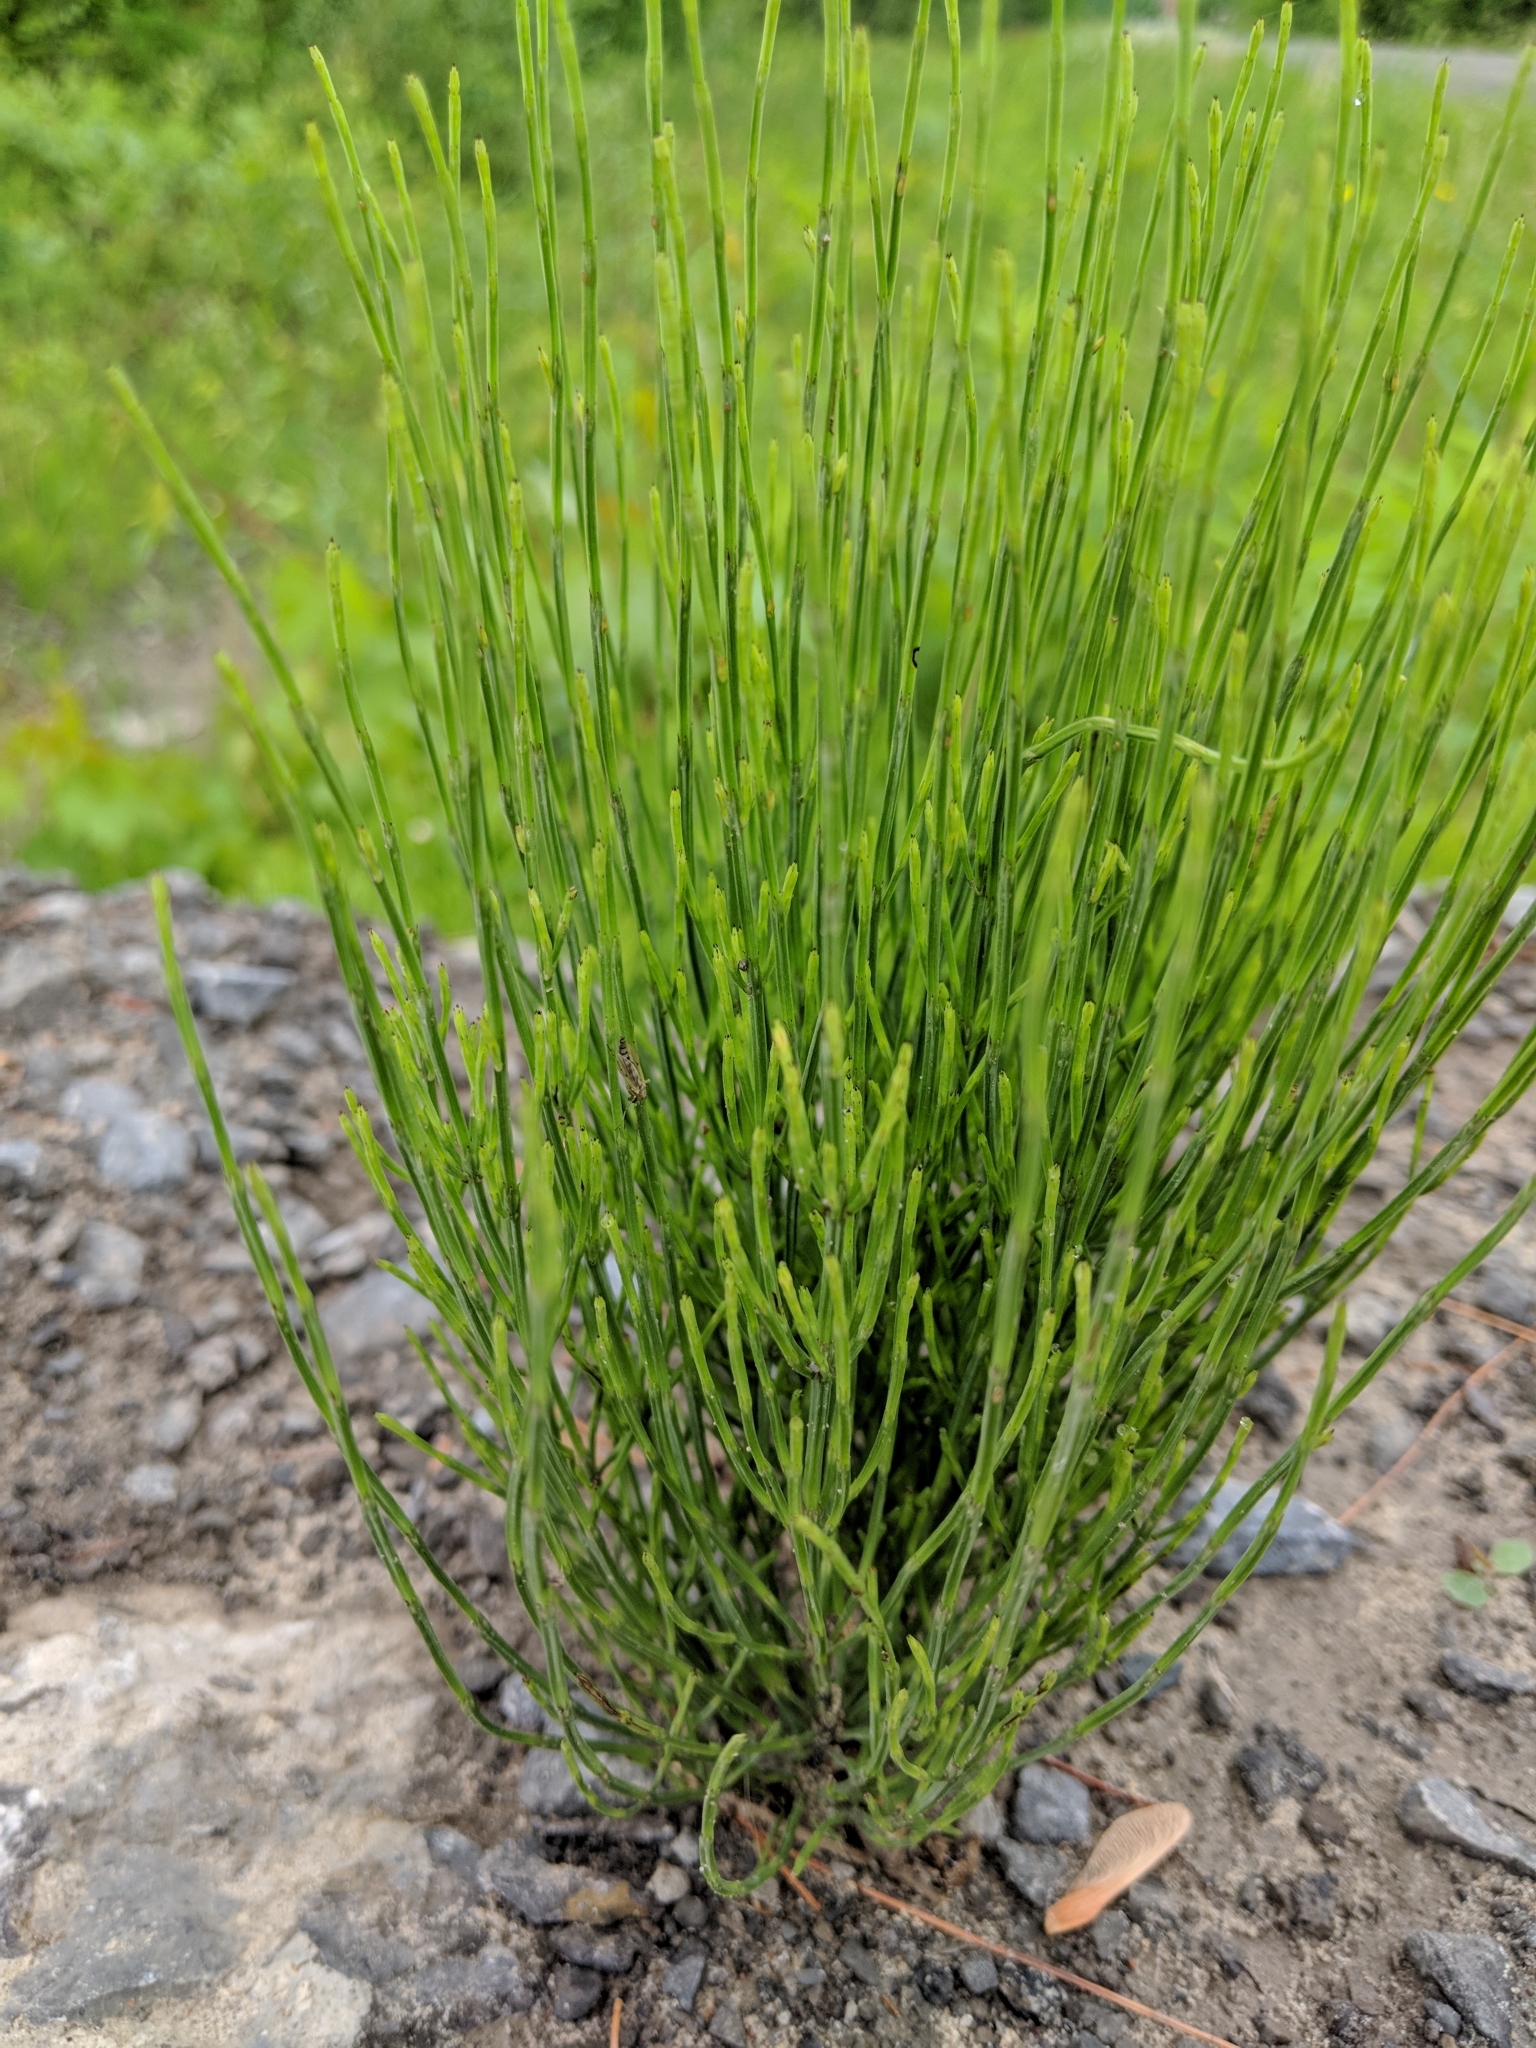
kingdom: Plantae
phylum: Tracheophyta
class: Polypodiopsida
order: Equisetales
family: Equisetaceae
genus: Equisetum
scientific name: Equisetum arvense
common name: Field horsetail
